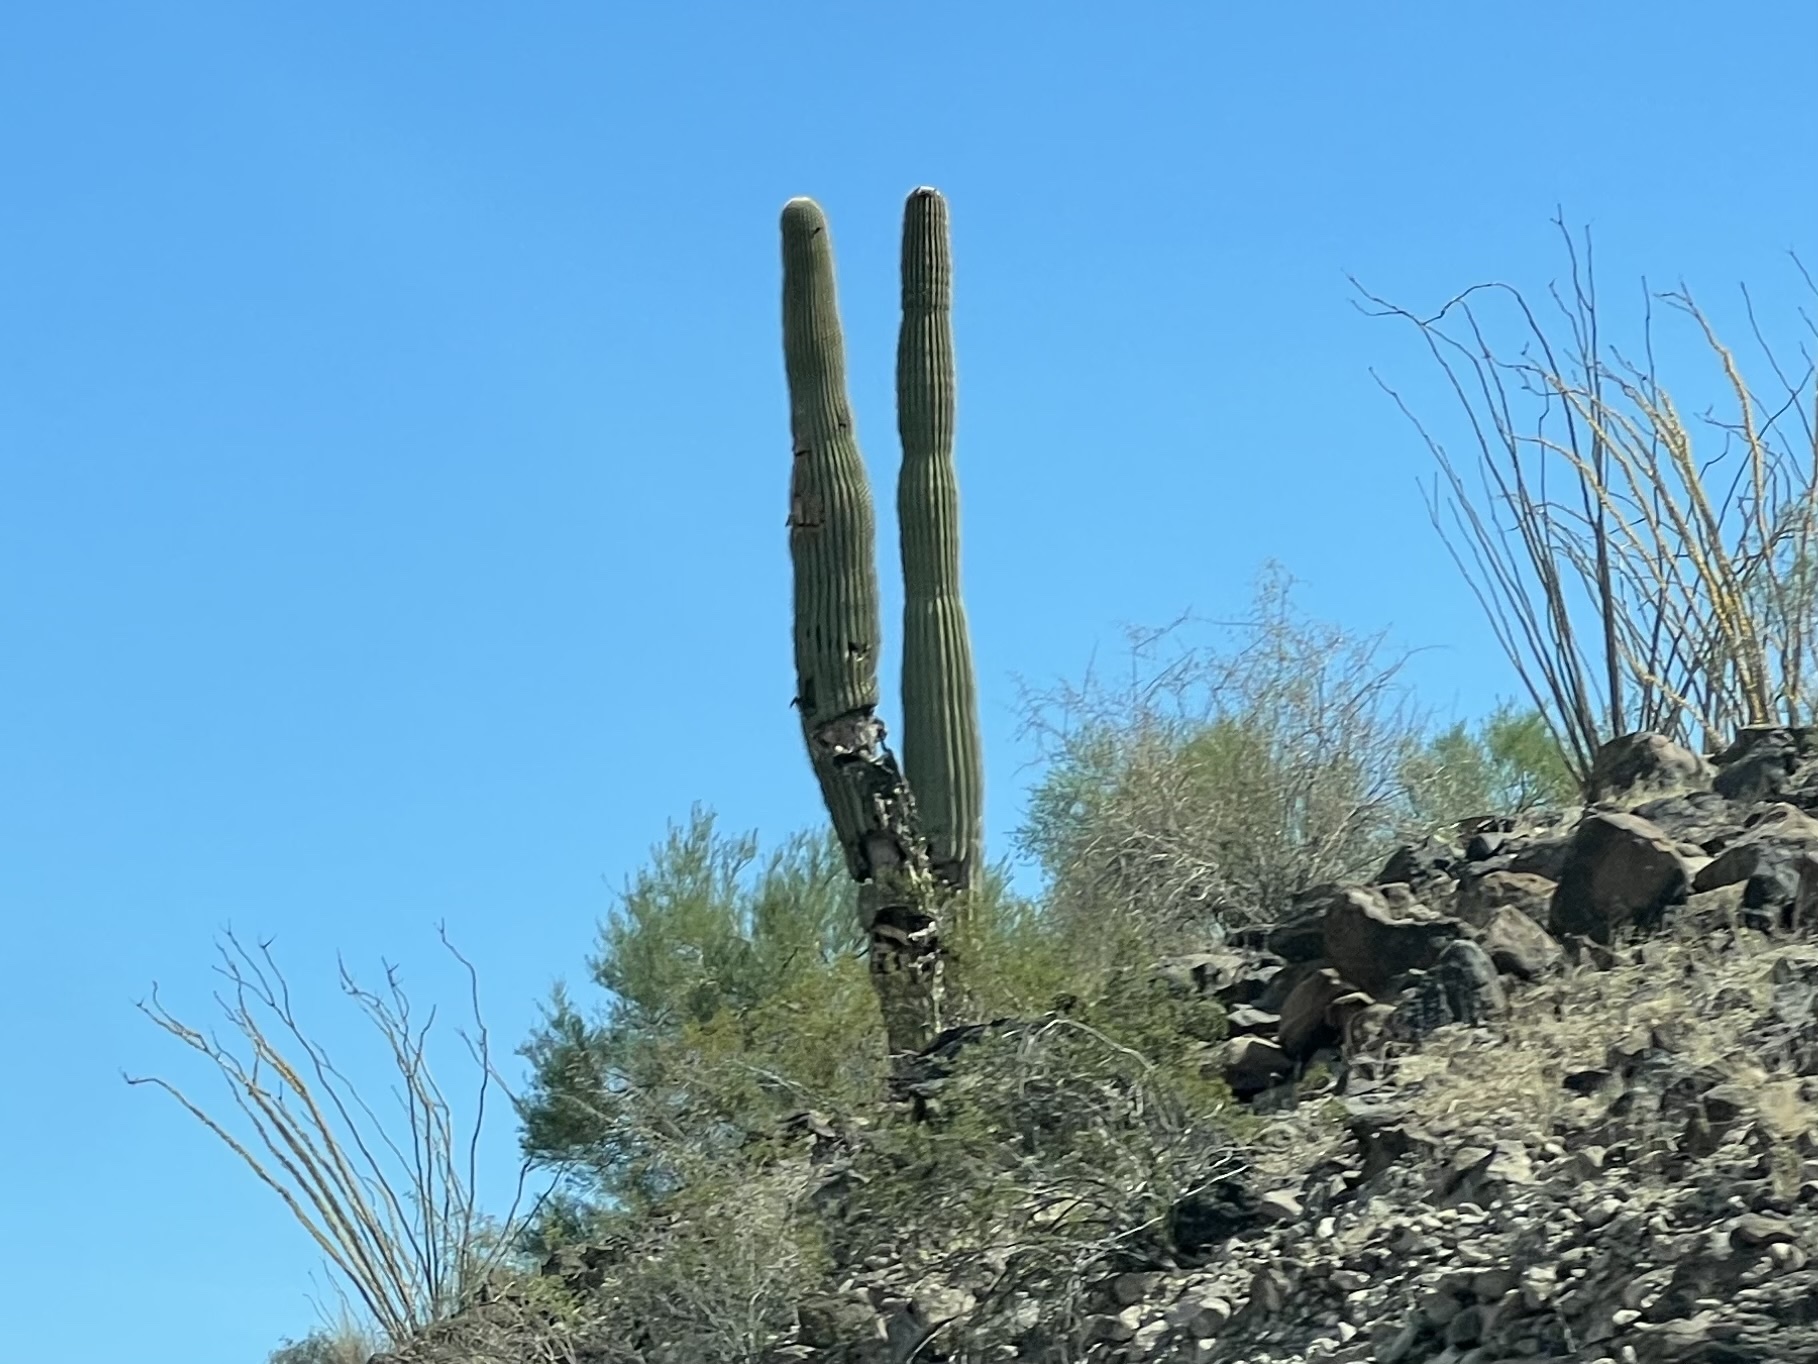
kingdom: Plantae
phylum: Tracheophyta
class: Magnoliopsida
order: Caryophyllales
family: Cactaceae
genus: Carnegiea
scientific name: Carnegiea gigantea
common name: Saguaro
